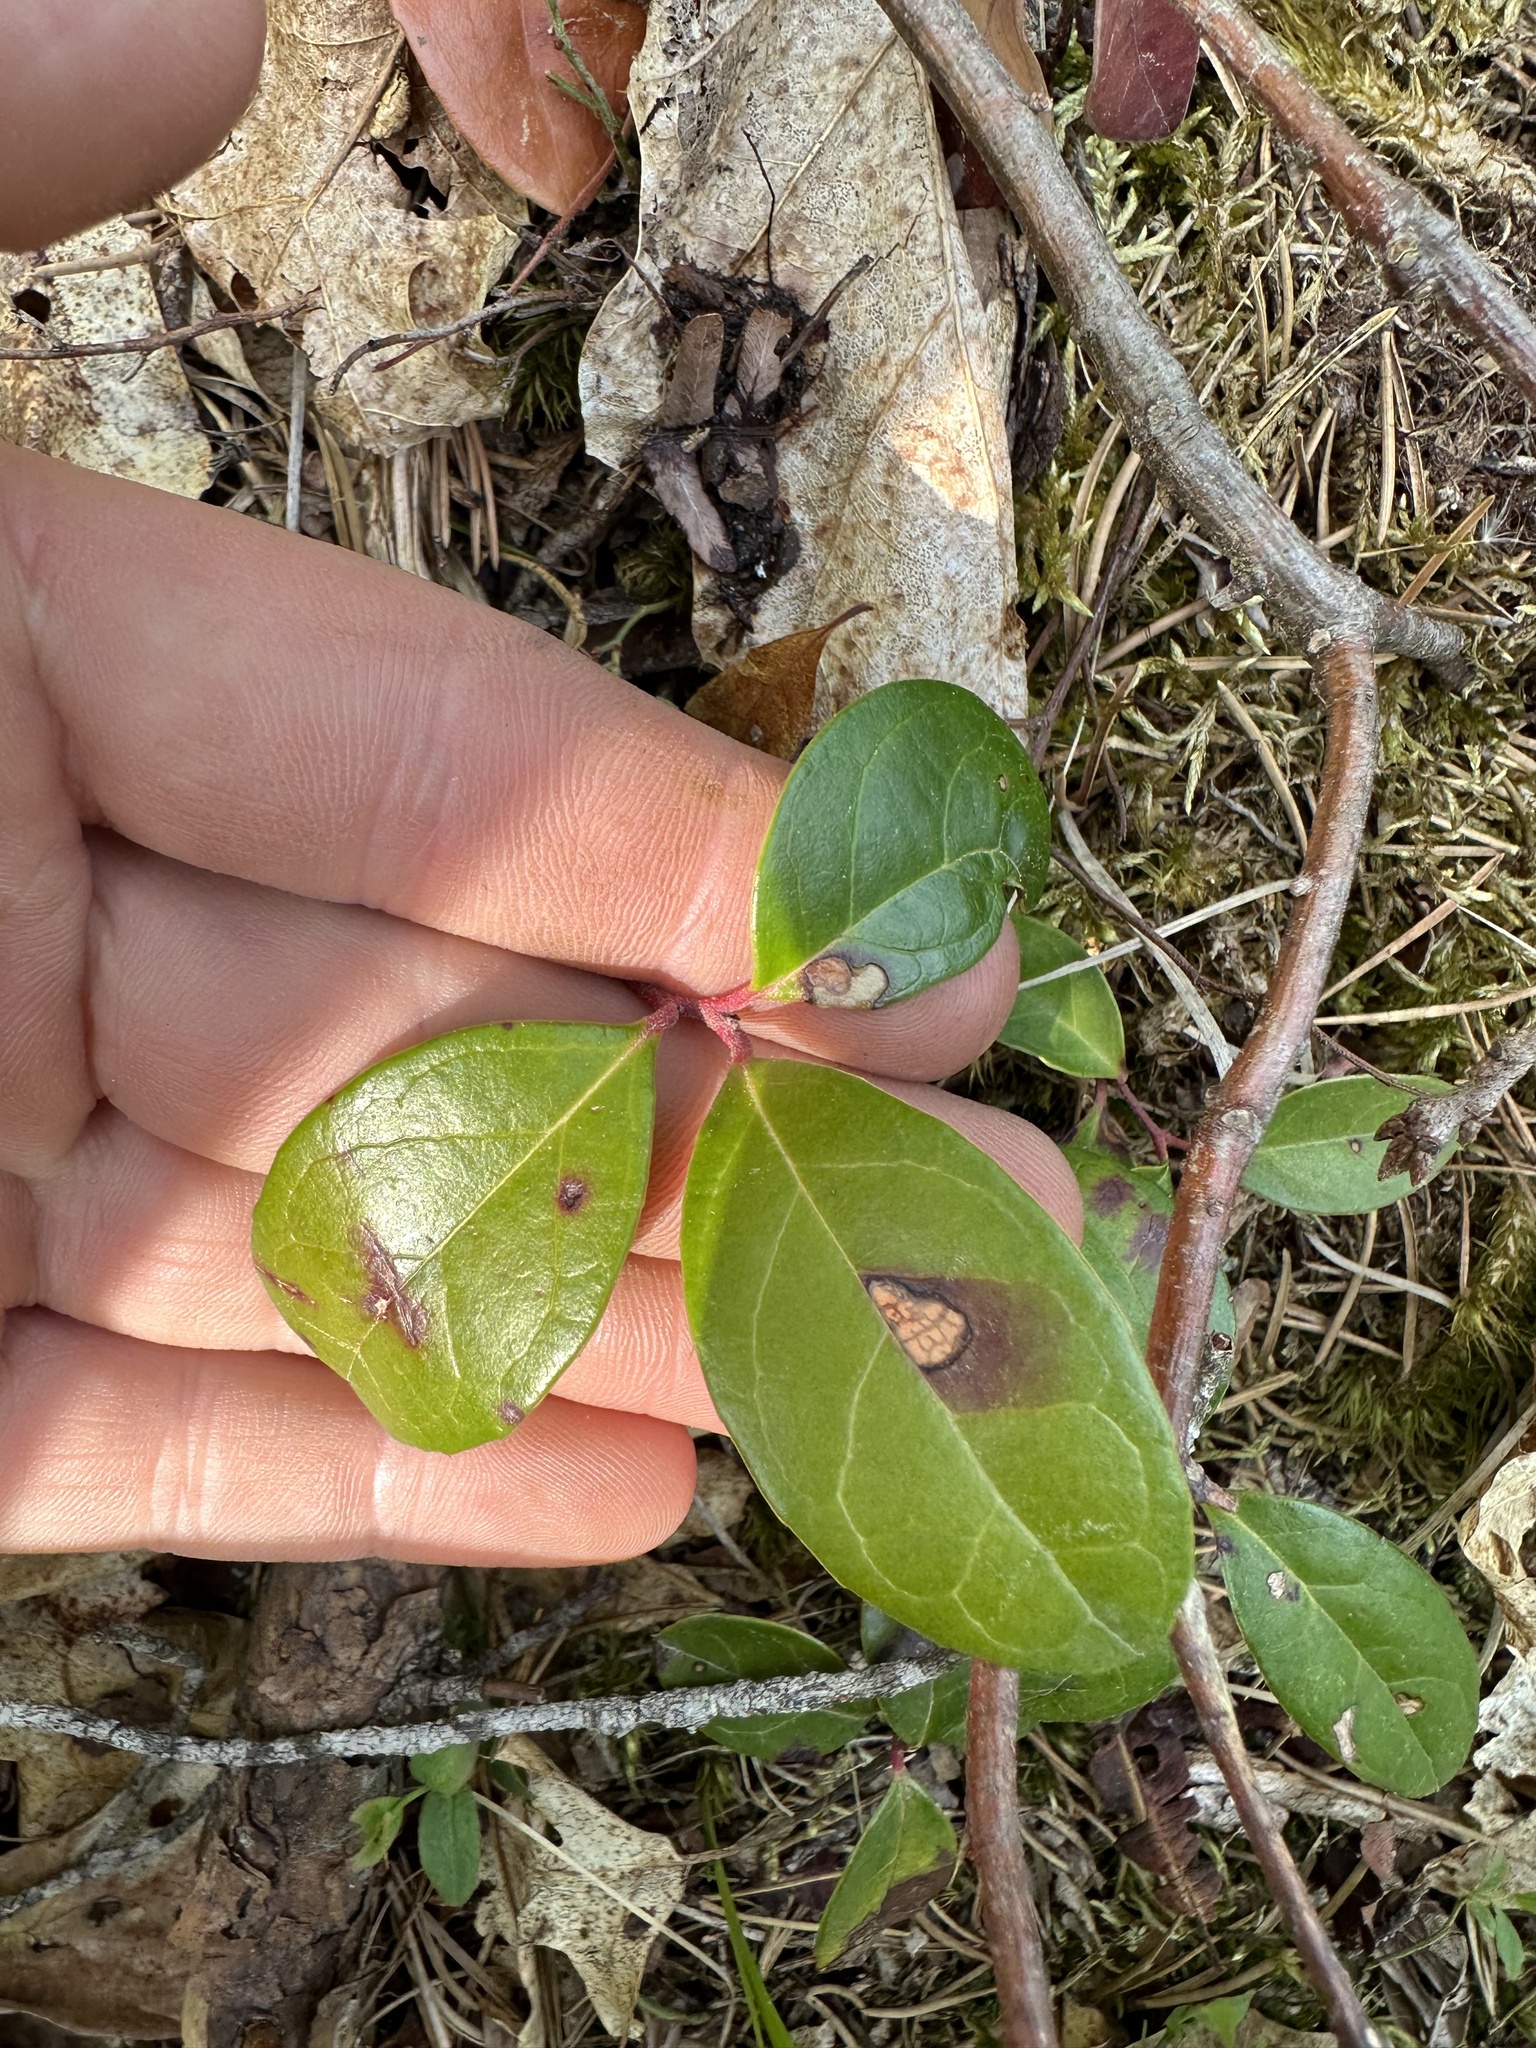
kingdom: Plantae
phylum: Tracheophyta
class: Magnoliopsida
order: Ericales
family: Ericaceae
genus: Gaultheria
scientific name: Gaultheria procumbens
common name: Checkerberry
